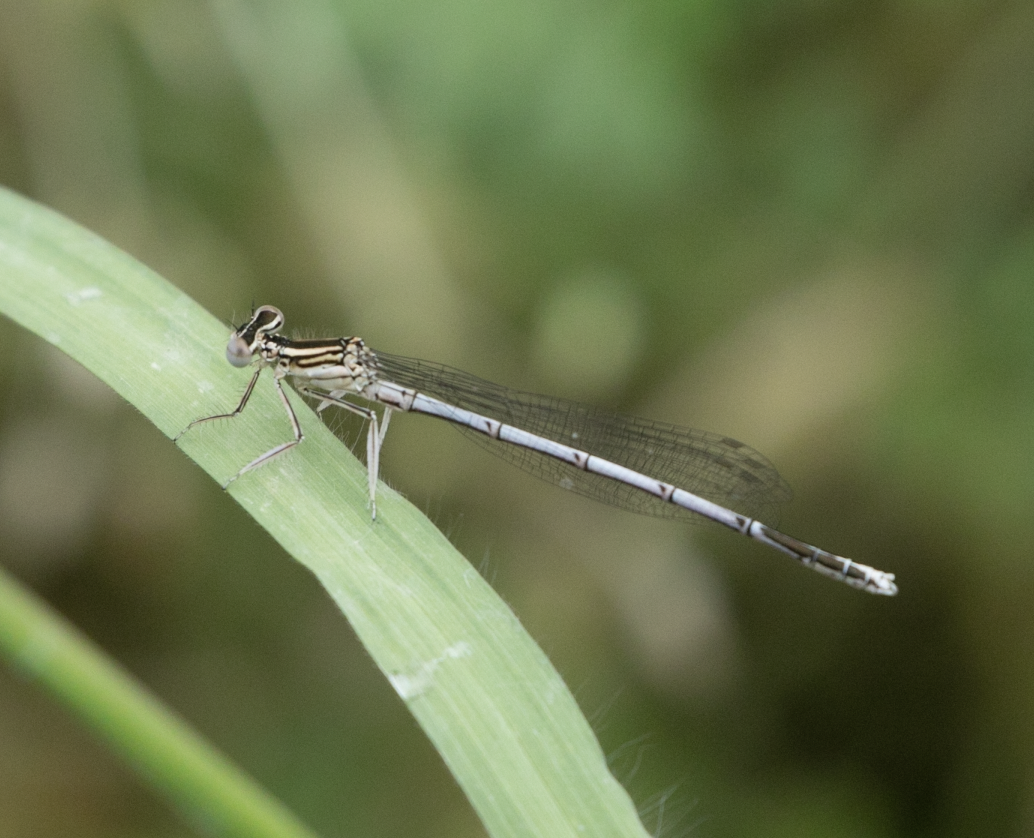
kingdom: Animalia
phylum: Arthropoda
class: Insecta
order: Odonata
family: Platycnemididae
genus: Platycnemis
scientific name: Platycnemis pennipes
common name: White-legged damselfly
